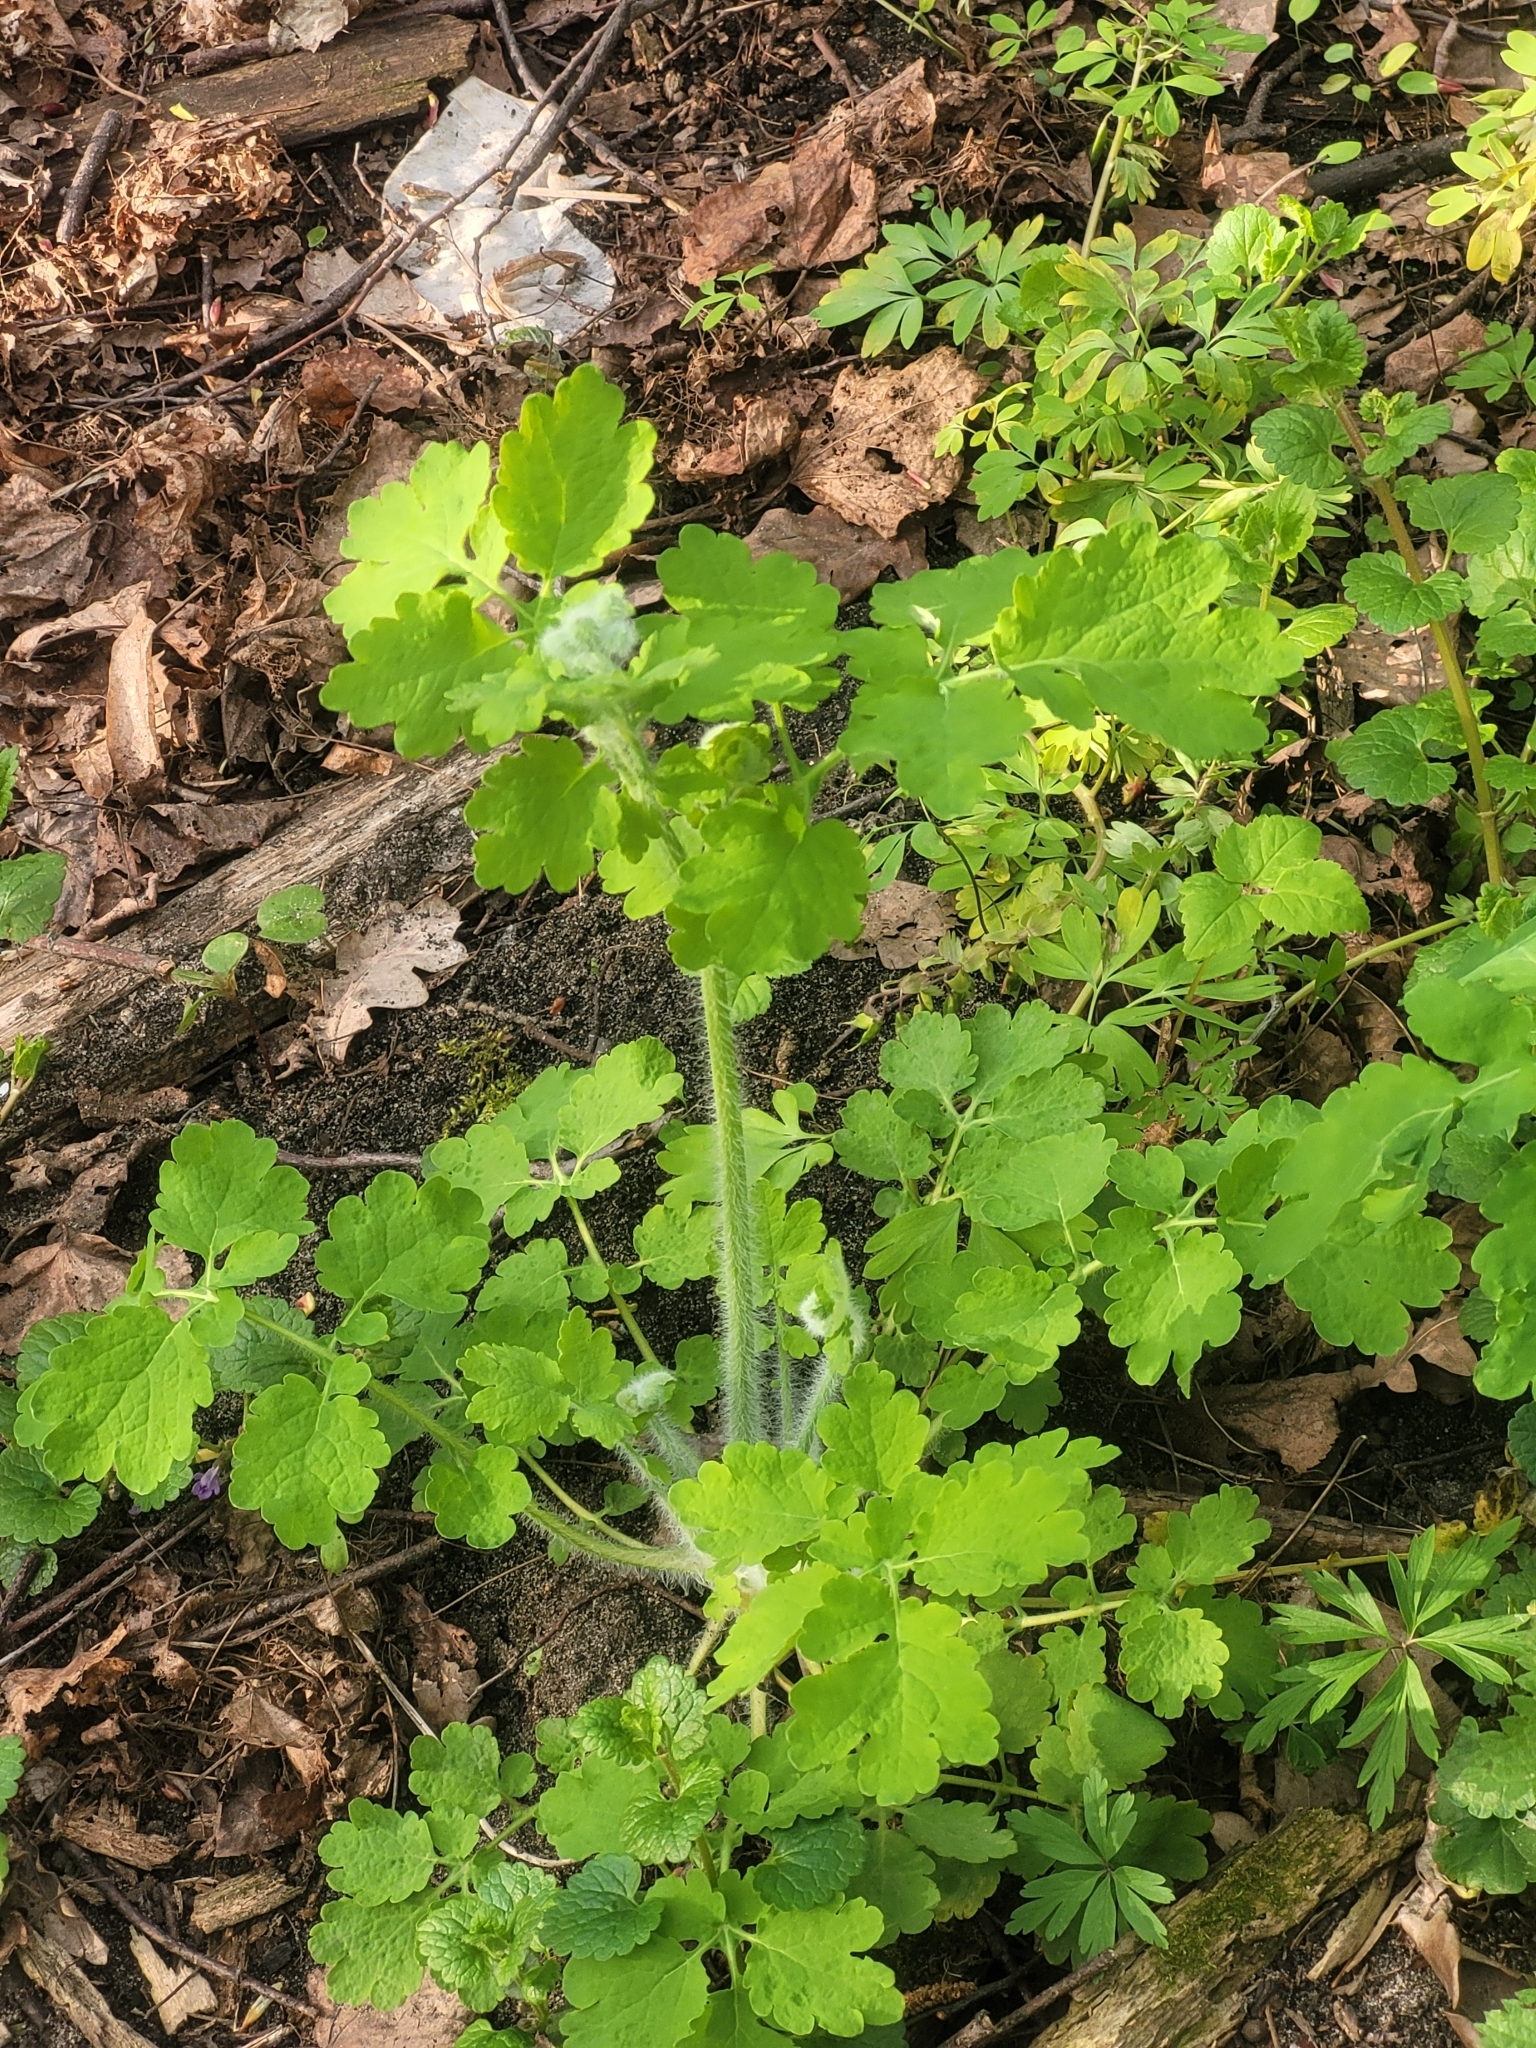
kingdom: Plantae
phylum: Tracheophyta
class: Magnoliopsida
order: Ranunculales
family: Papaveraceae
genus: Chelidonium
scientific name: Chelidonium majus
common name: Greater celandine
